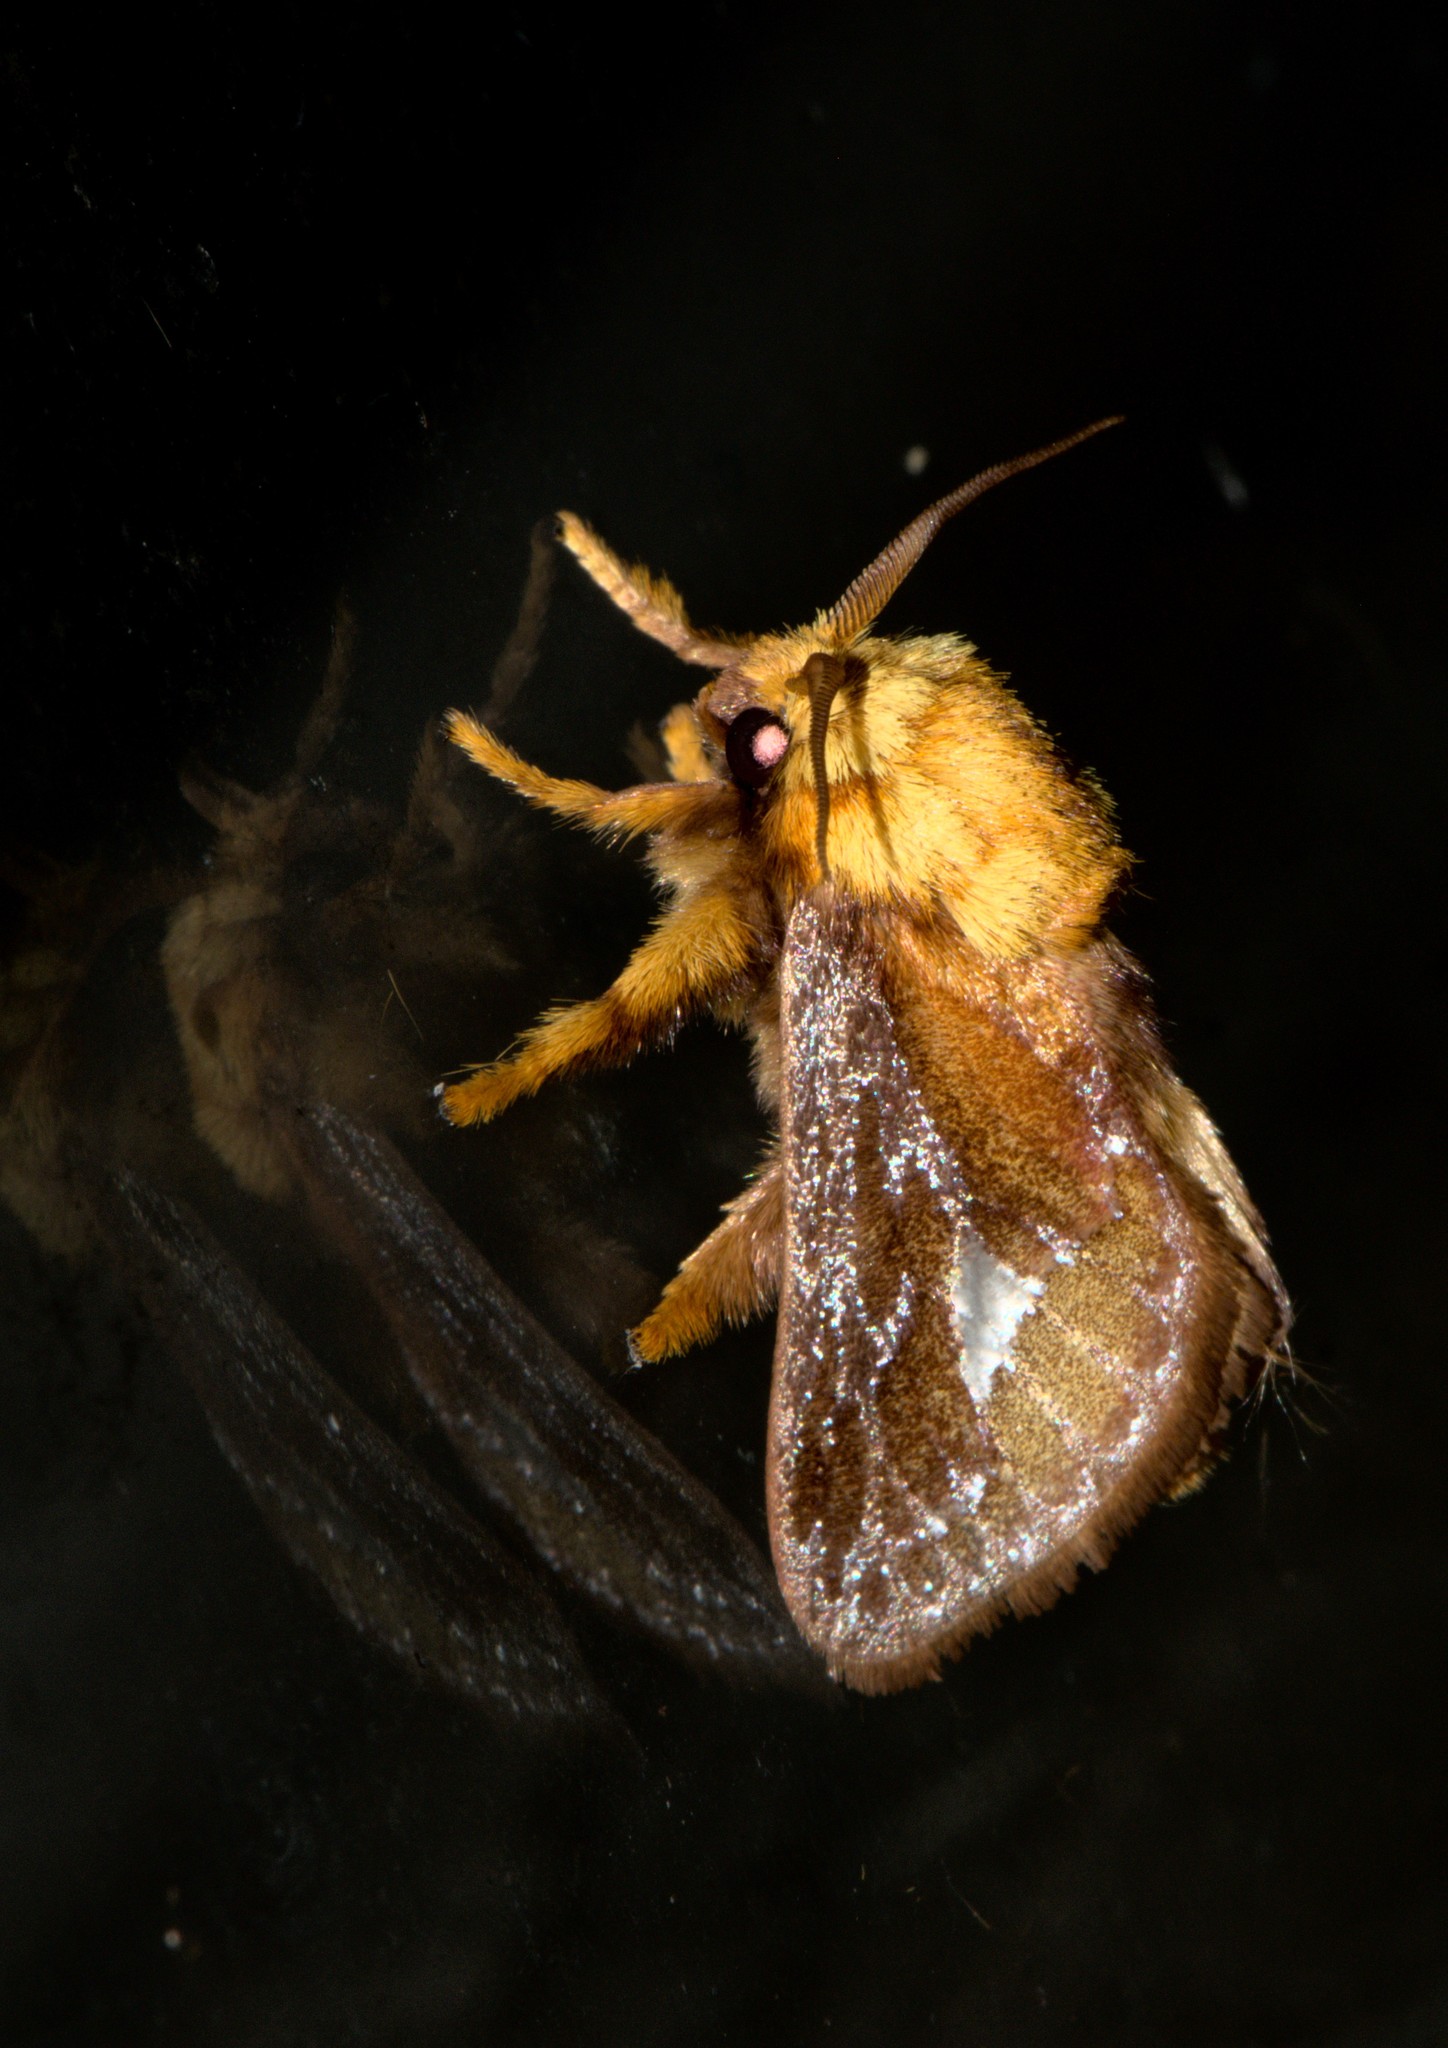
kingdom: Animalia
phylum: Arthropoda
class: Insecta
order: Lepidoptera
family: Limacodidae
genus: Miresa
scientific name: Miresa bracteata
